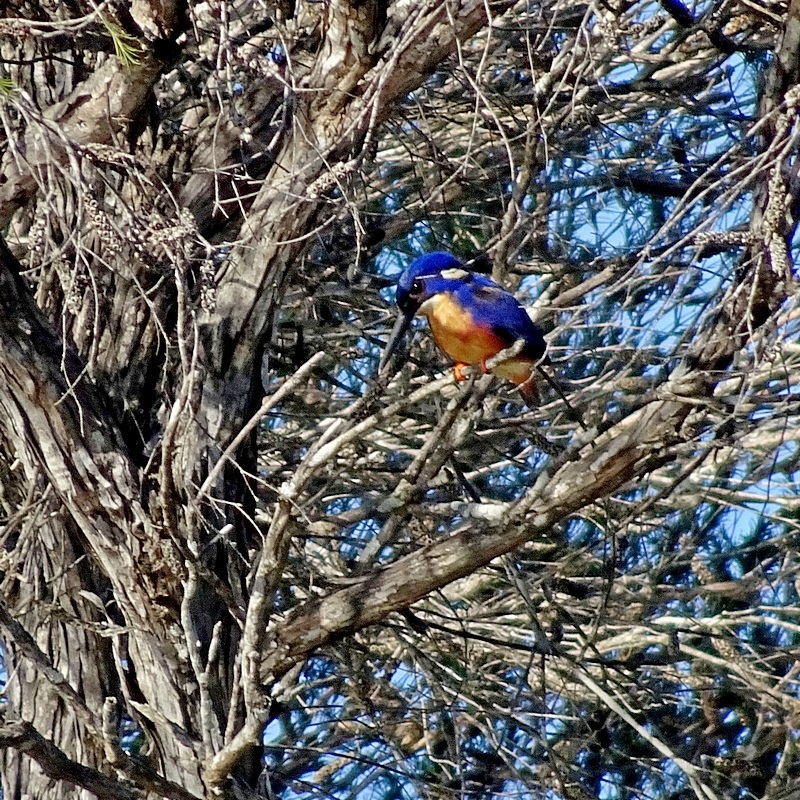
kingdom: Animalia
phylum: Chordata
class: Aves
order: Coraciiformes
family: Alcedinidae
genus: Ceyx
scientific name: Ceyx azureus
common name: Azure kingfisher
